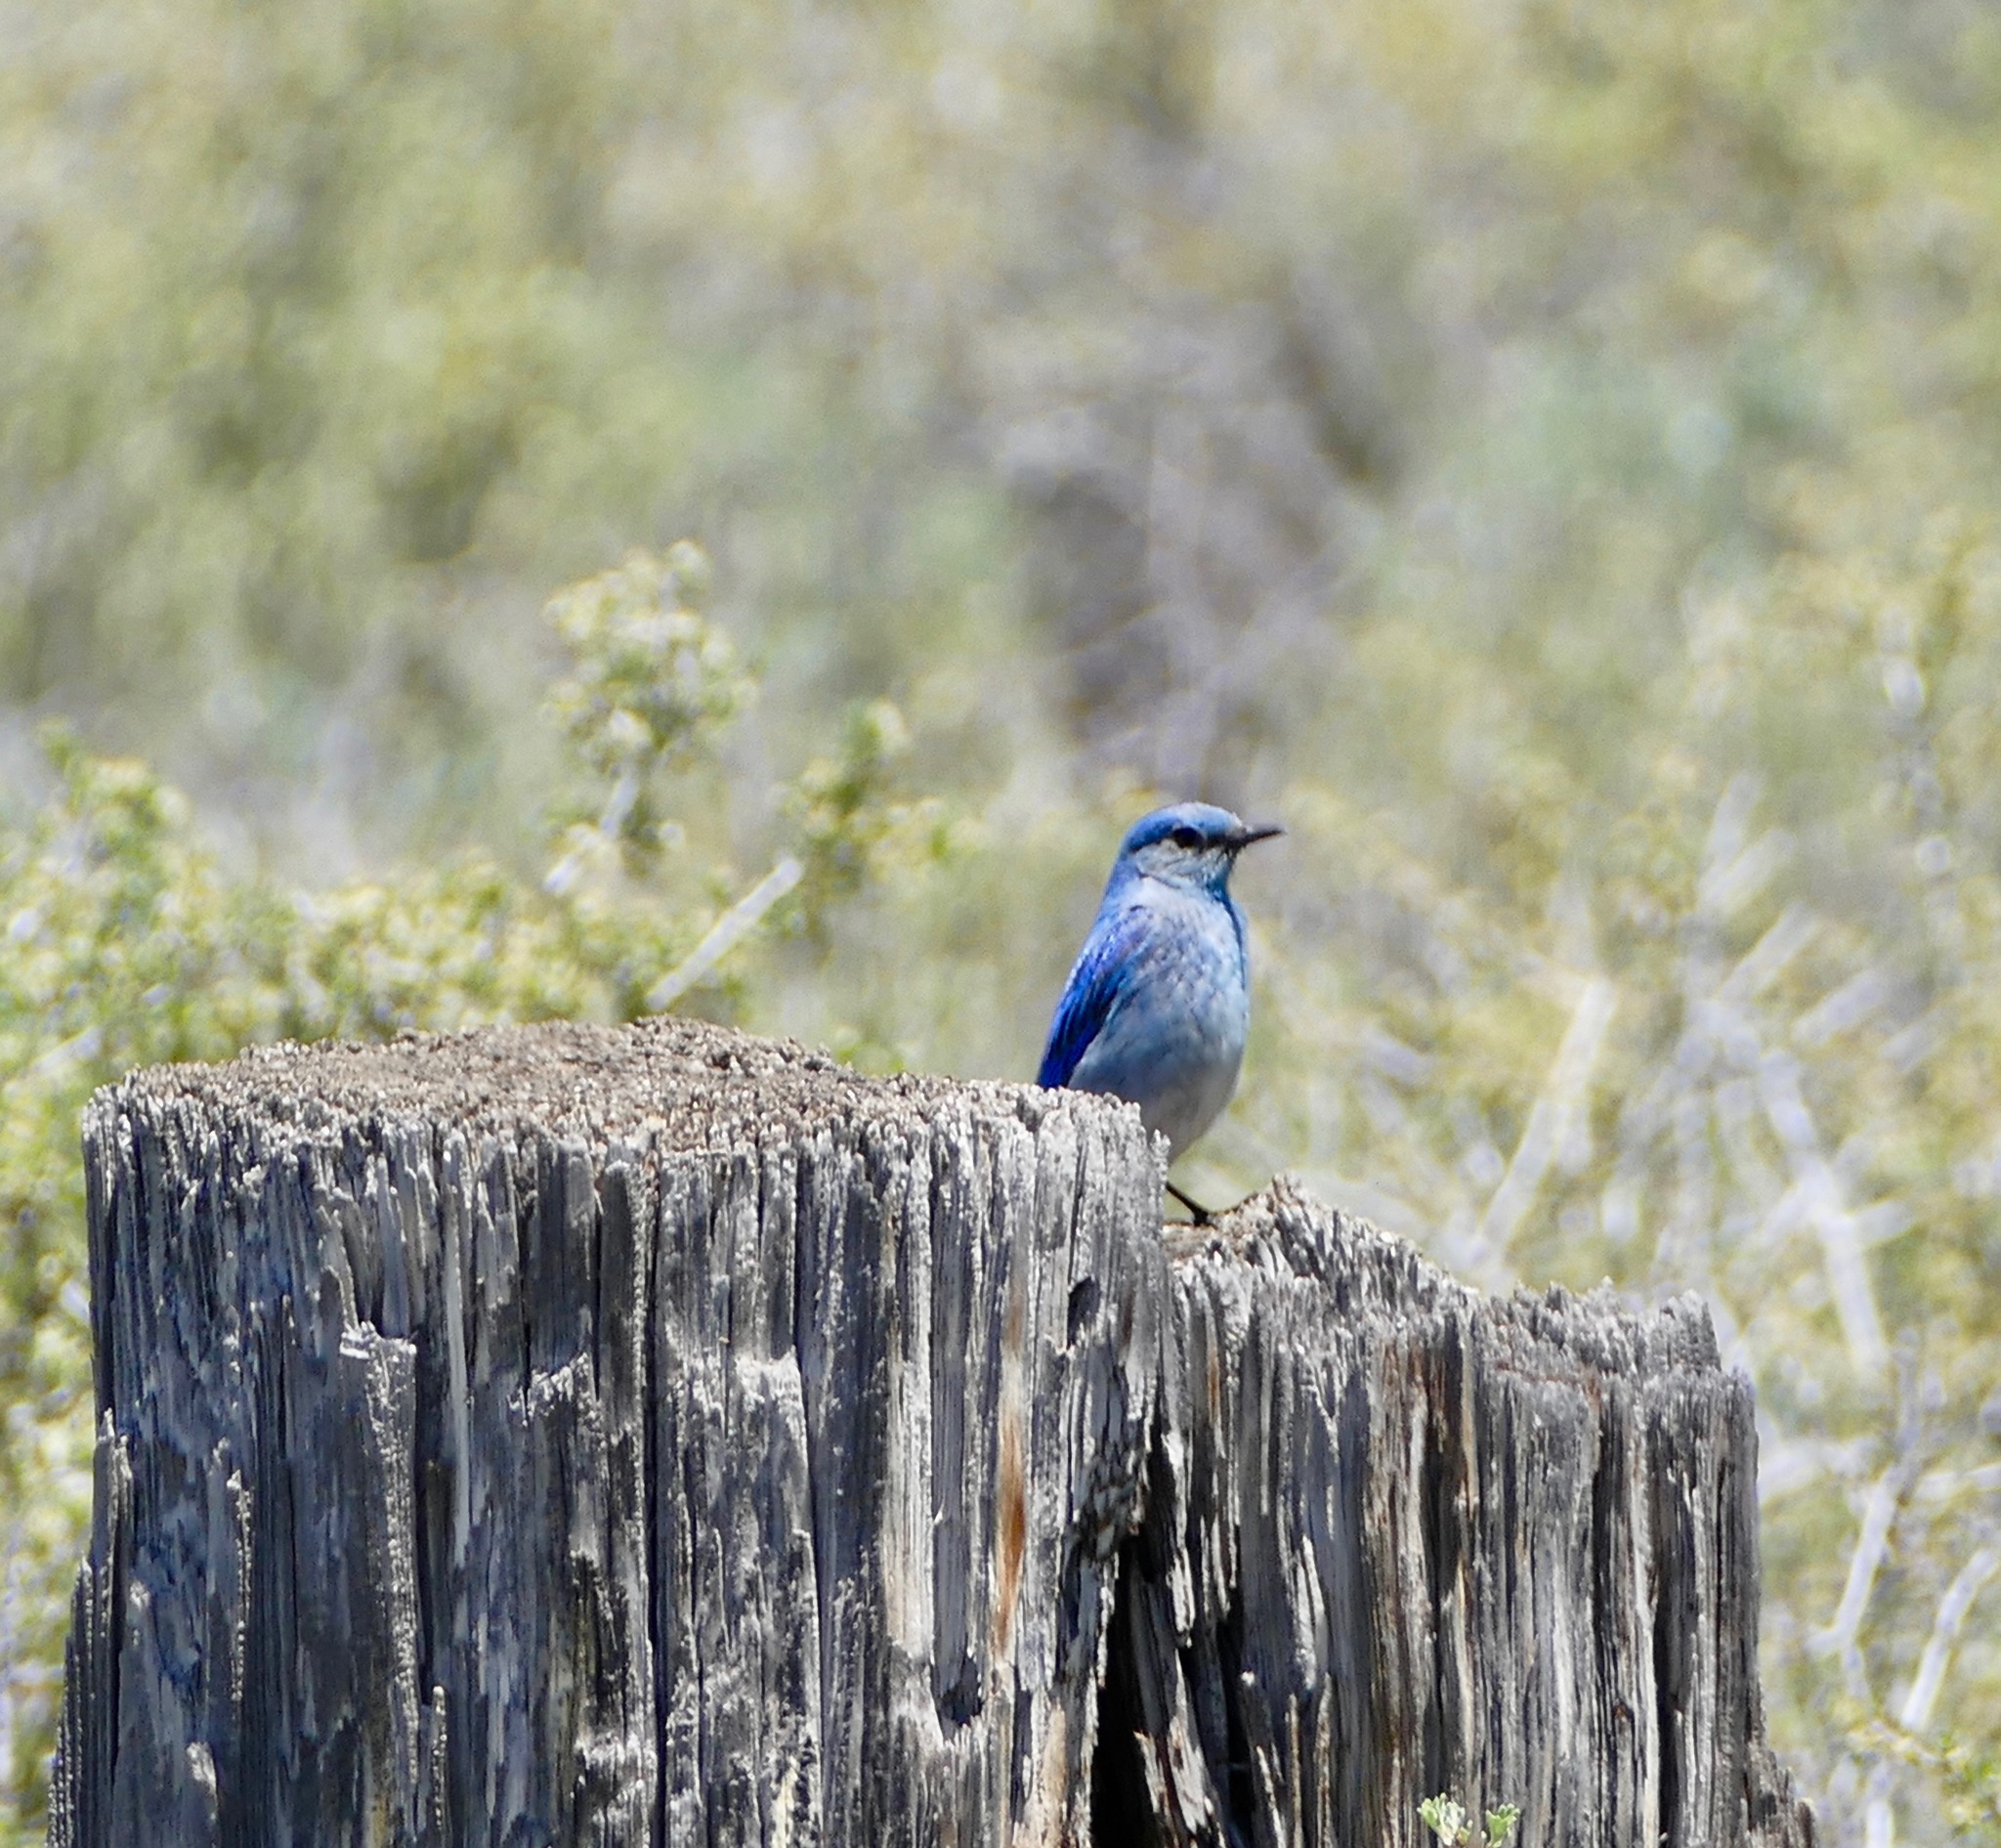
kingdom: Animalia
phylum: Chordata
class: Aves
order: Passeriformes
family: Turdidae
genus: Sialia
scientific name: Sialia currucoides
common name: Mountain bluebird
